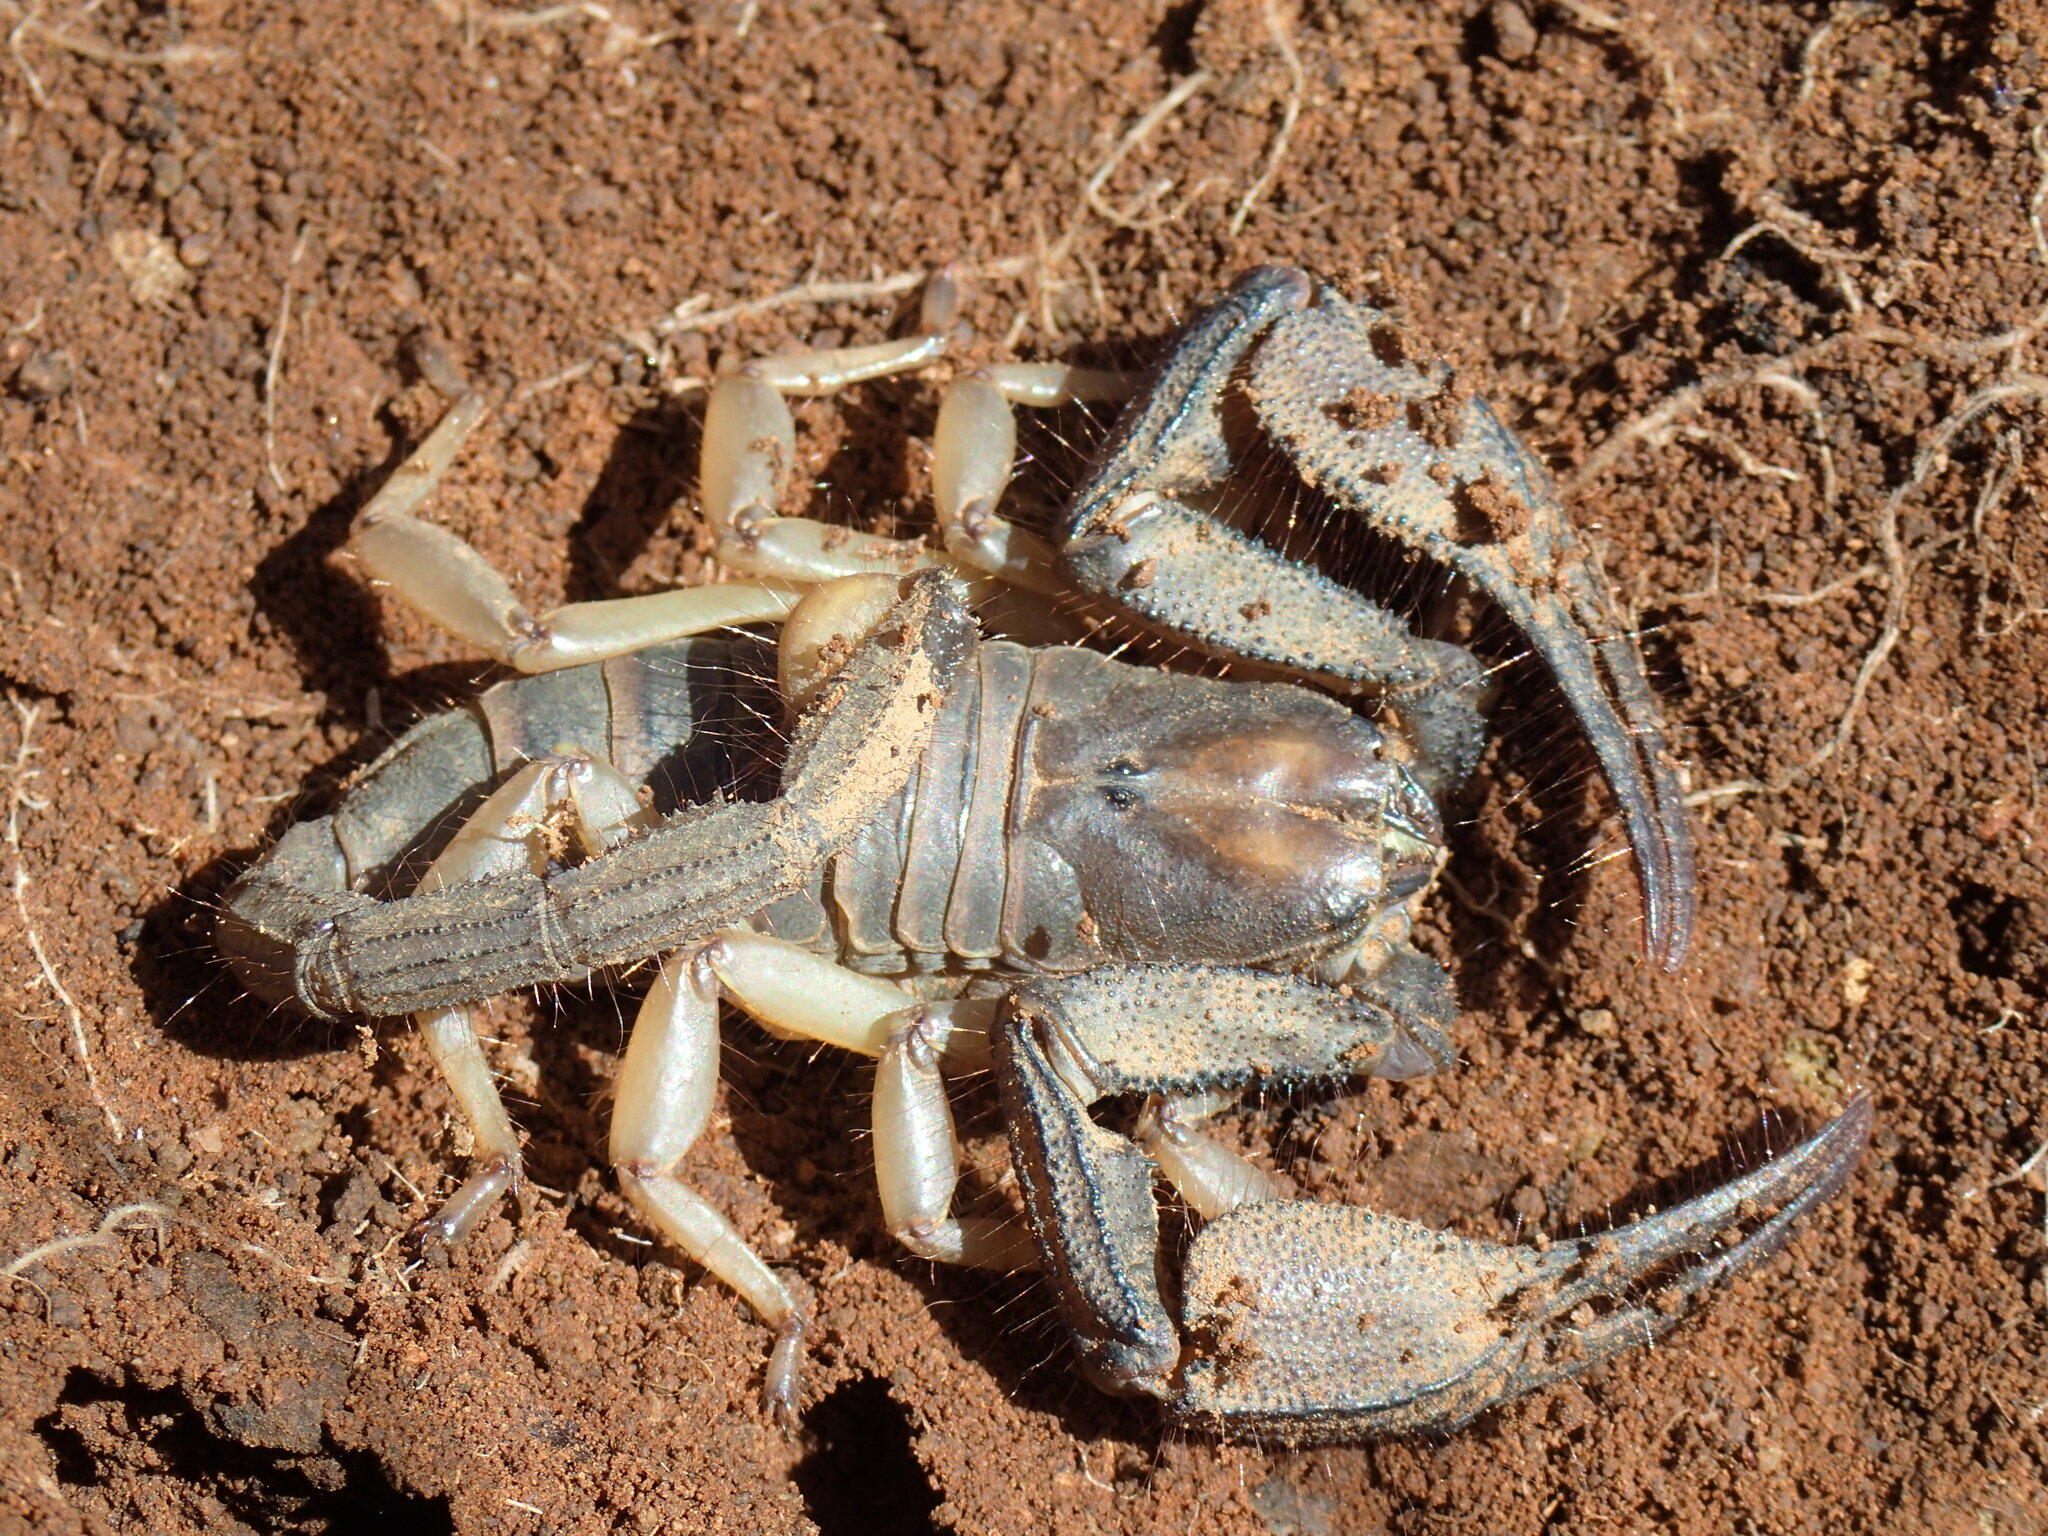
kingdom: Animalia
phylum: Arthropoda
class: Arachnida
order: Scorpiones
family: Scorpionidae
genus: Opistophthalmus
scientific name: Opistophthalmus austerus
